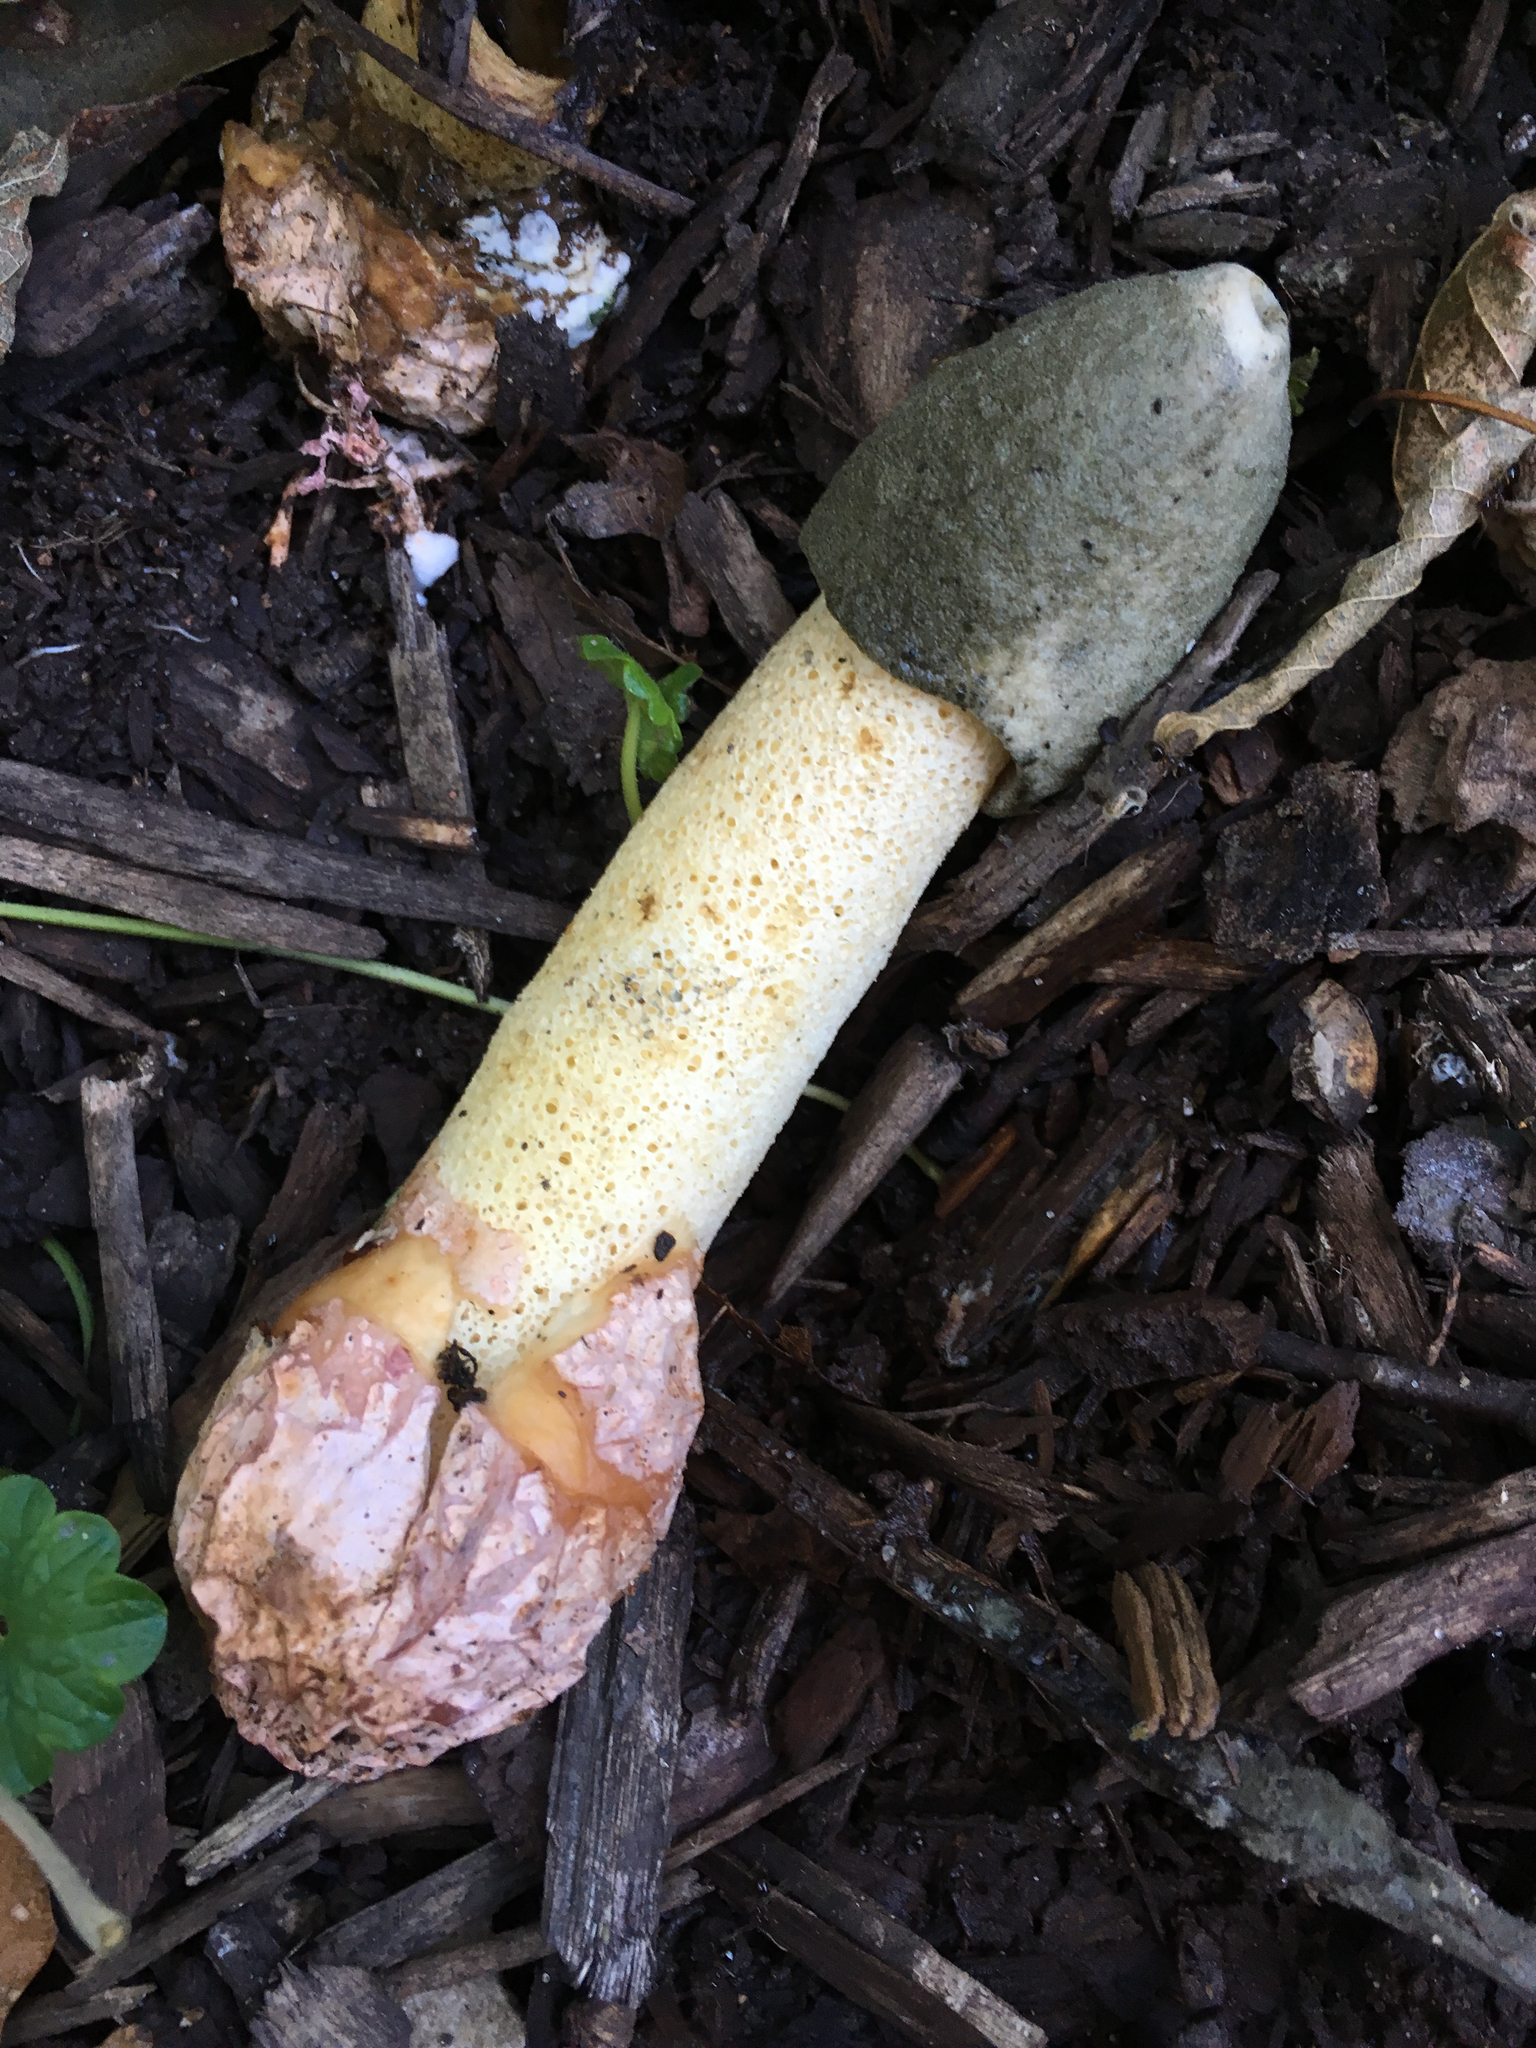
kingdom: Fungi
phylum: Basidiomycota
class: Agaricomycetes
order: Phallales
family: Phallaceae
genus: Phallus
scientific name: Phallus ravenelii
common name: Ravenel's stinkhorn
